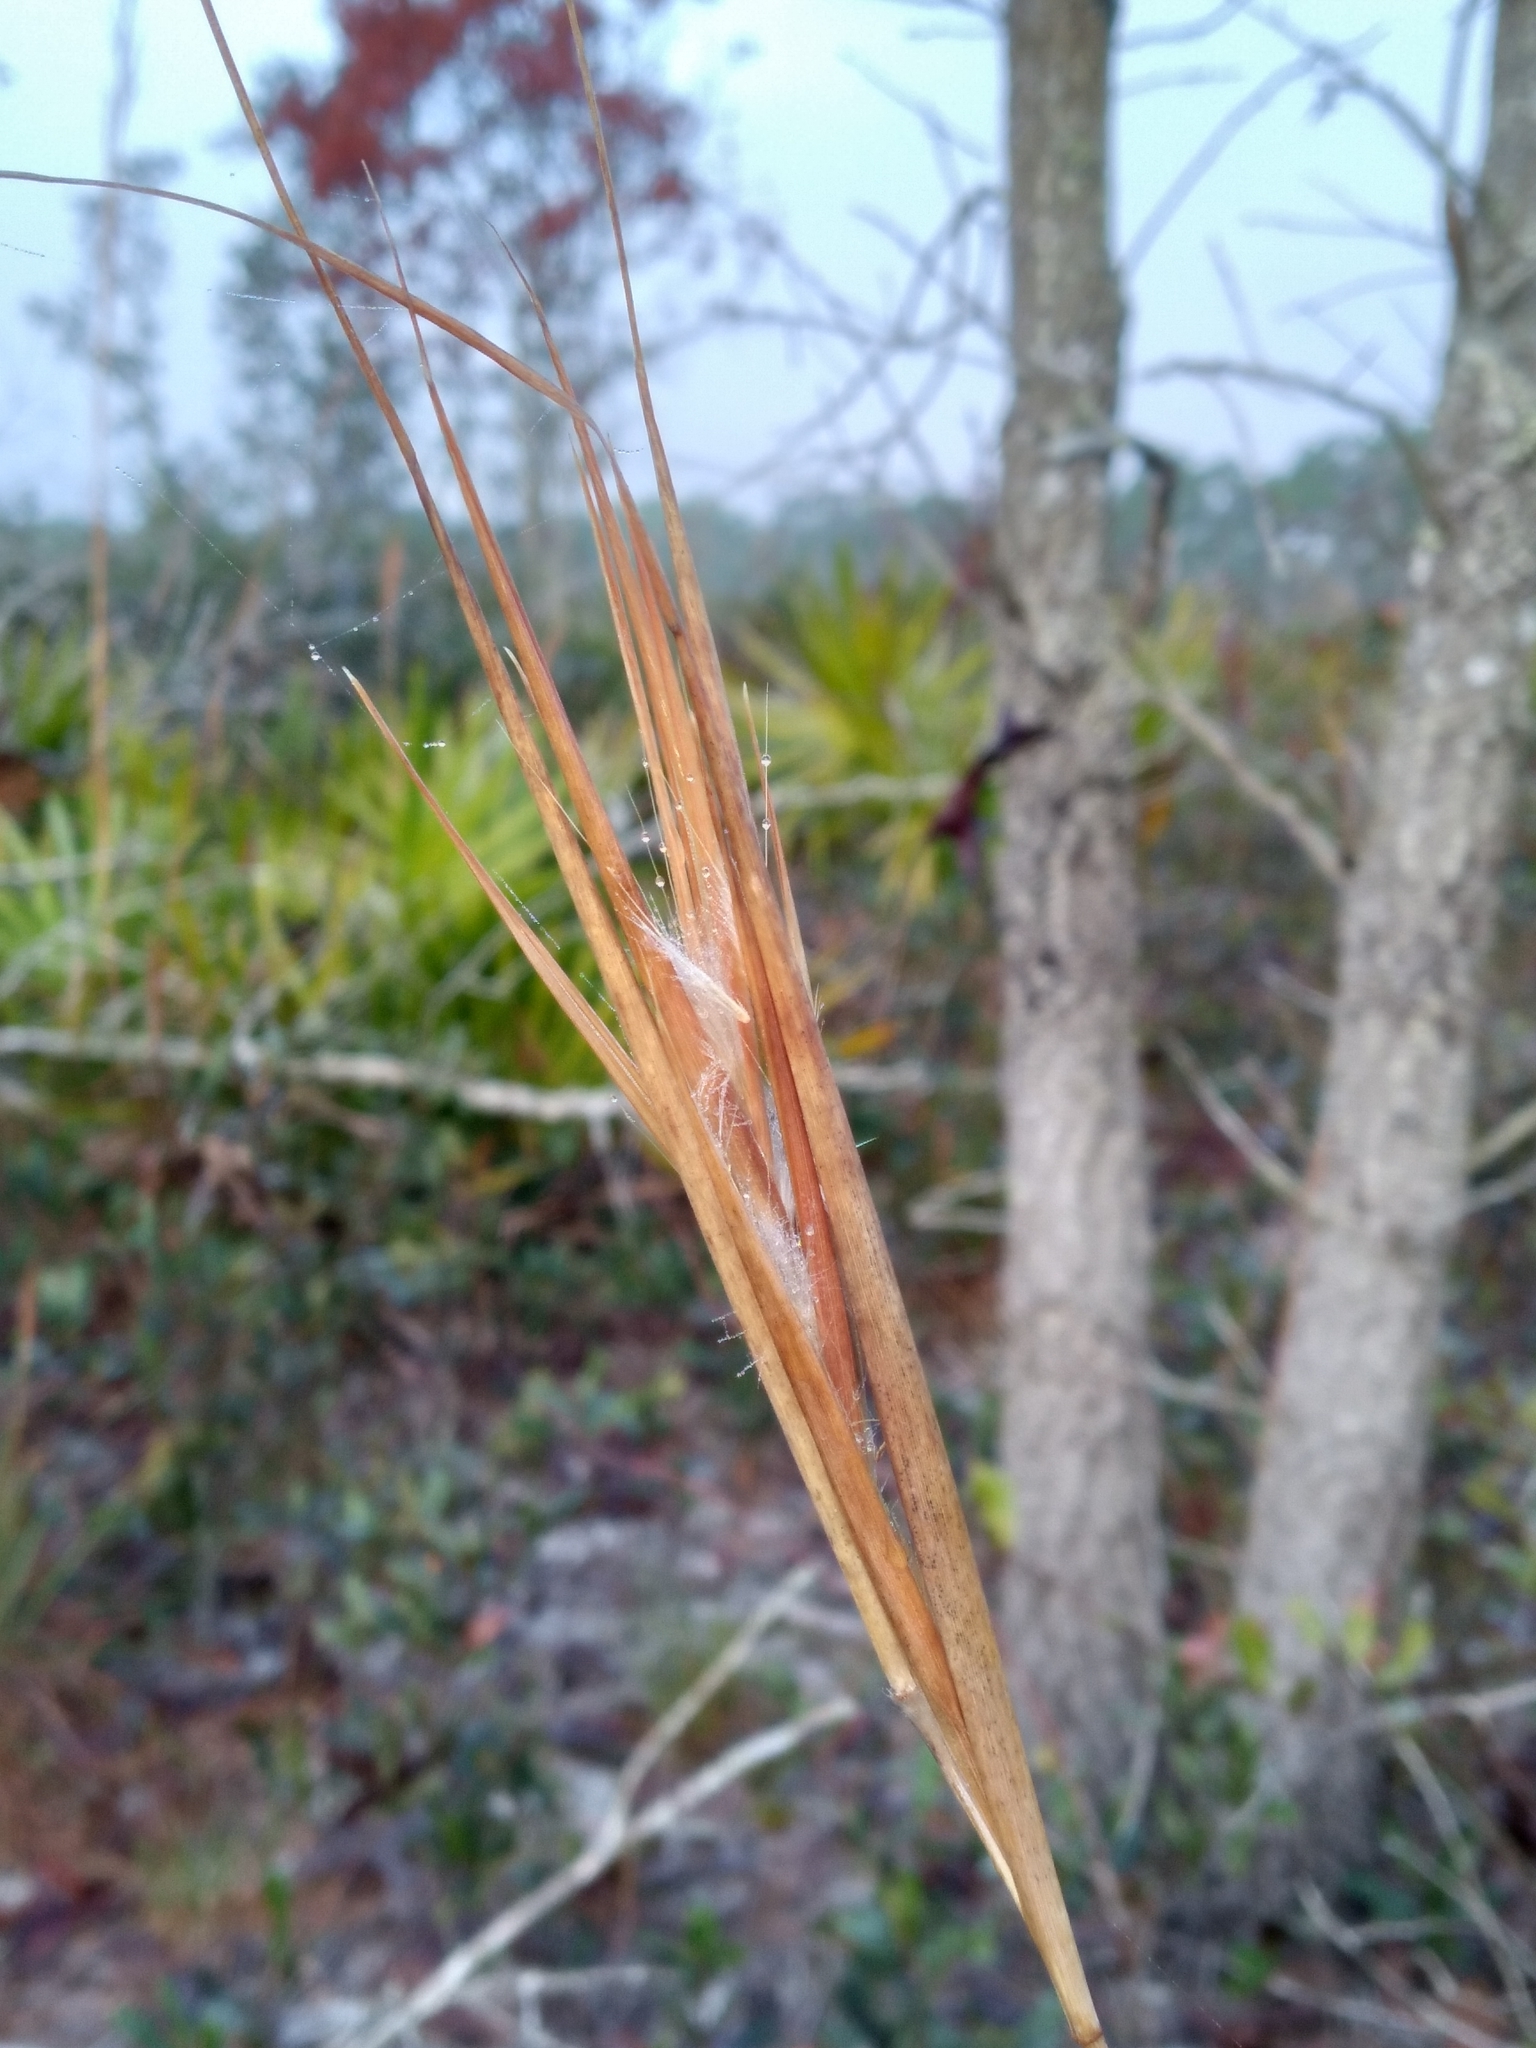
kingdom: Plantae
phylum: Tracheophyta
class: Liliopsida
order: Poales
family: Poaceae
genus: Andropogon
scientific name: Andropogon gyrans
